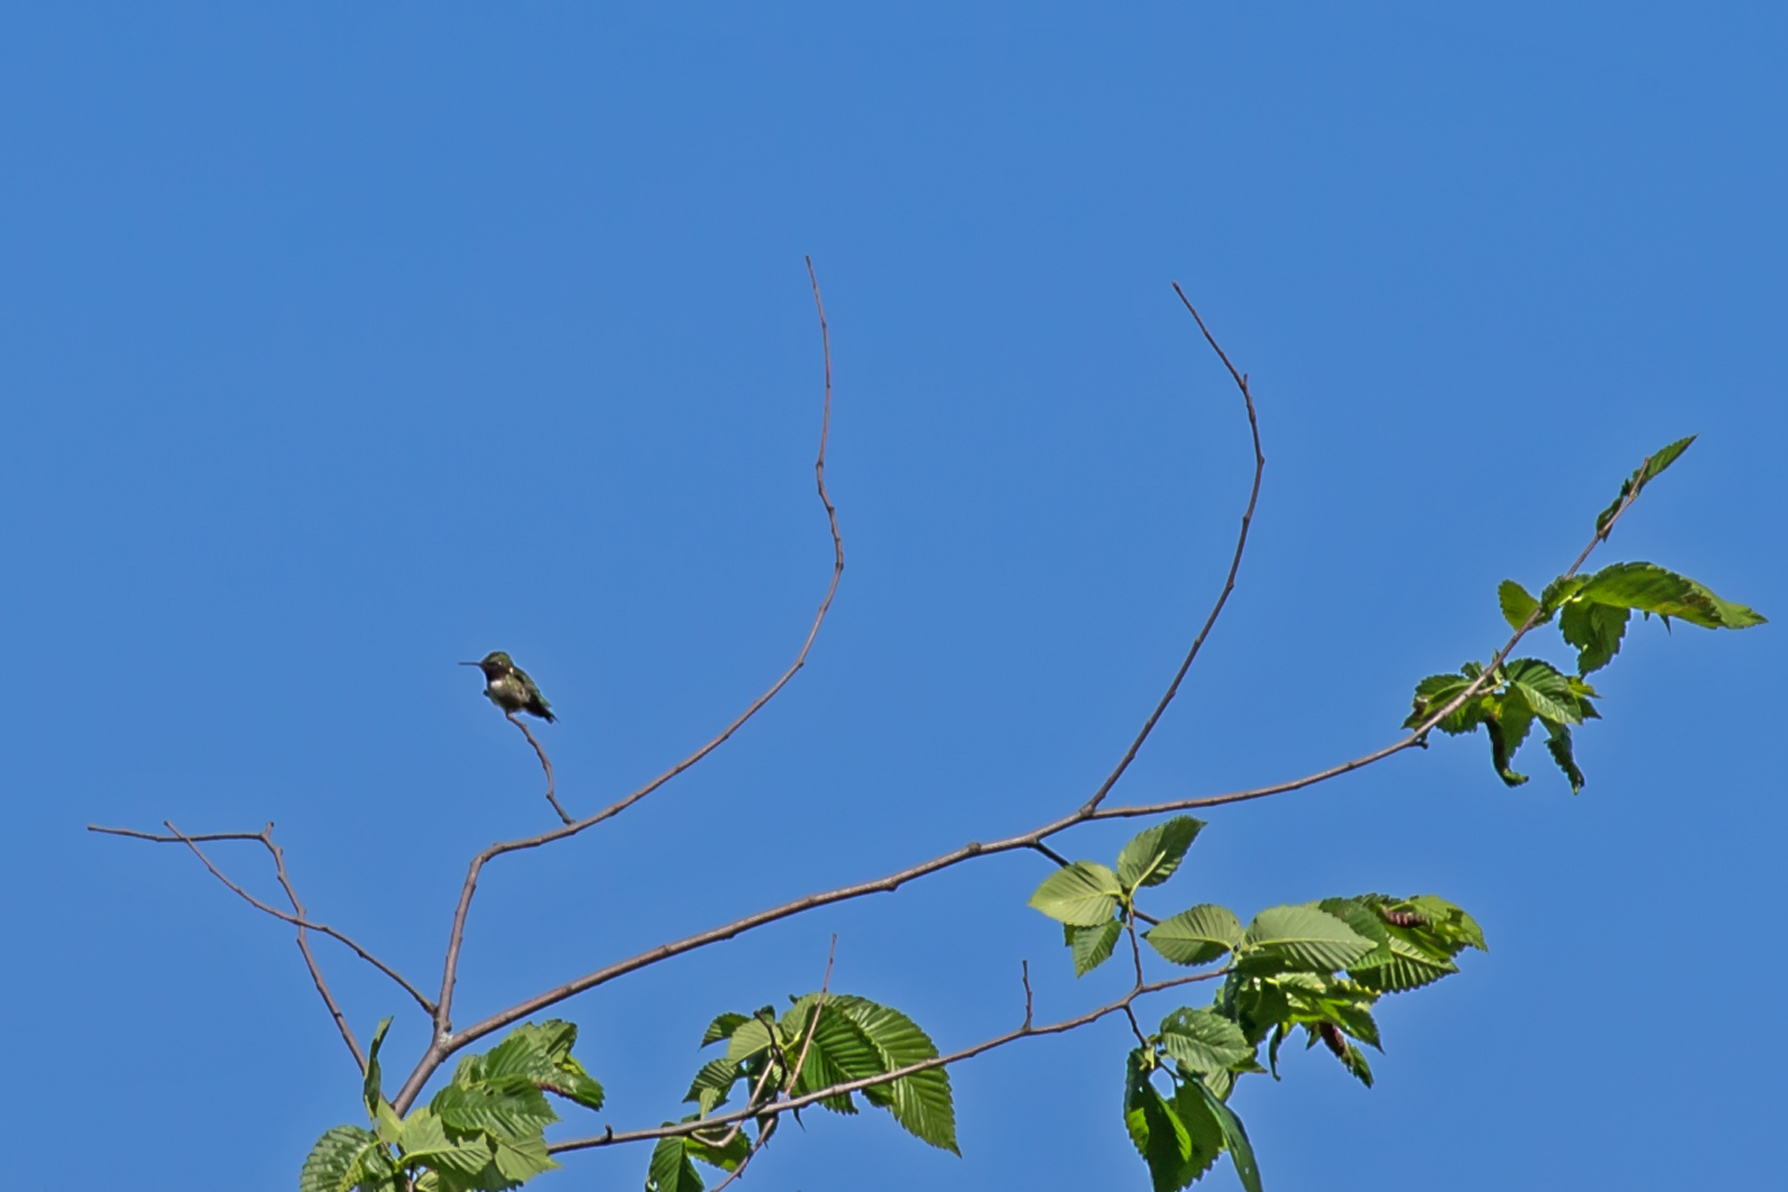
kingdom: Animalia
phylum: Chordata
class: Aves
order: Apodiformes
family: Trochilidae
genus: Archilochus
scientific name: Archilochus colubris
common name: Ruby-throated hummingbird
